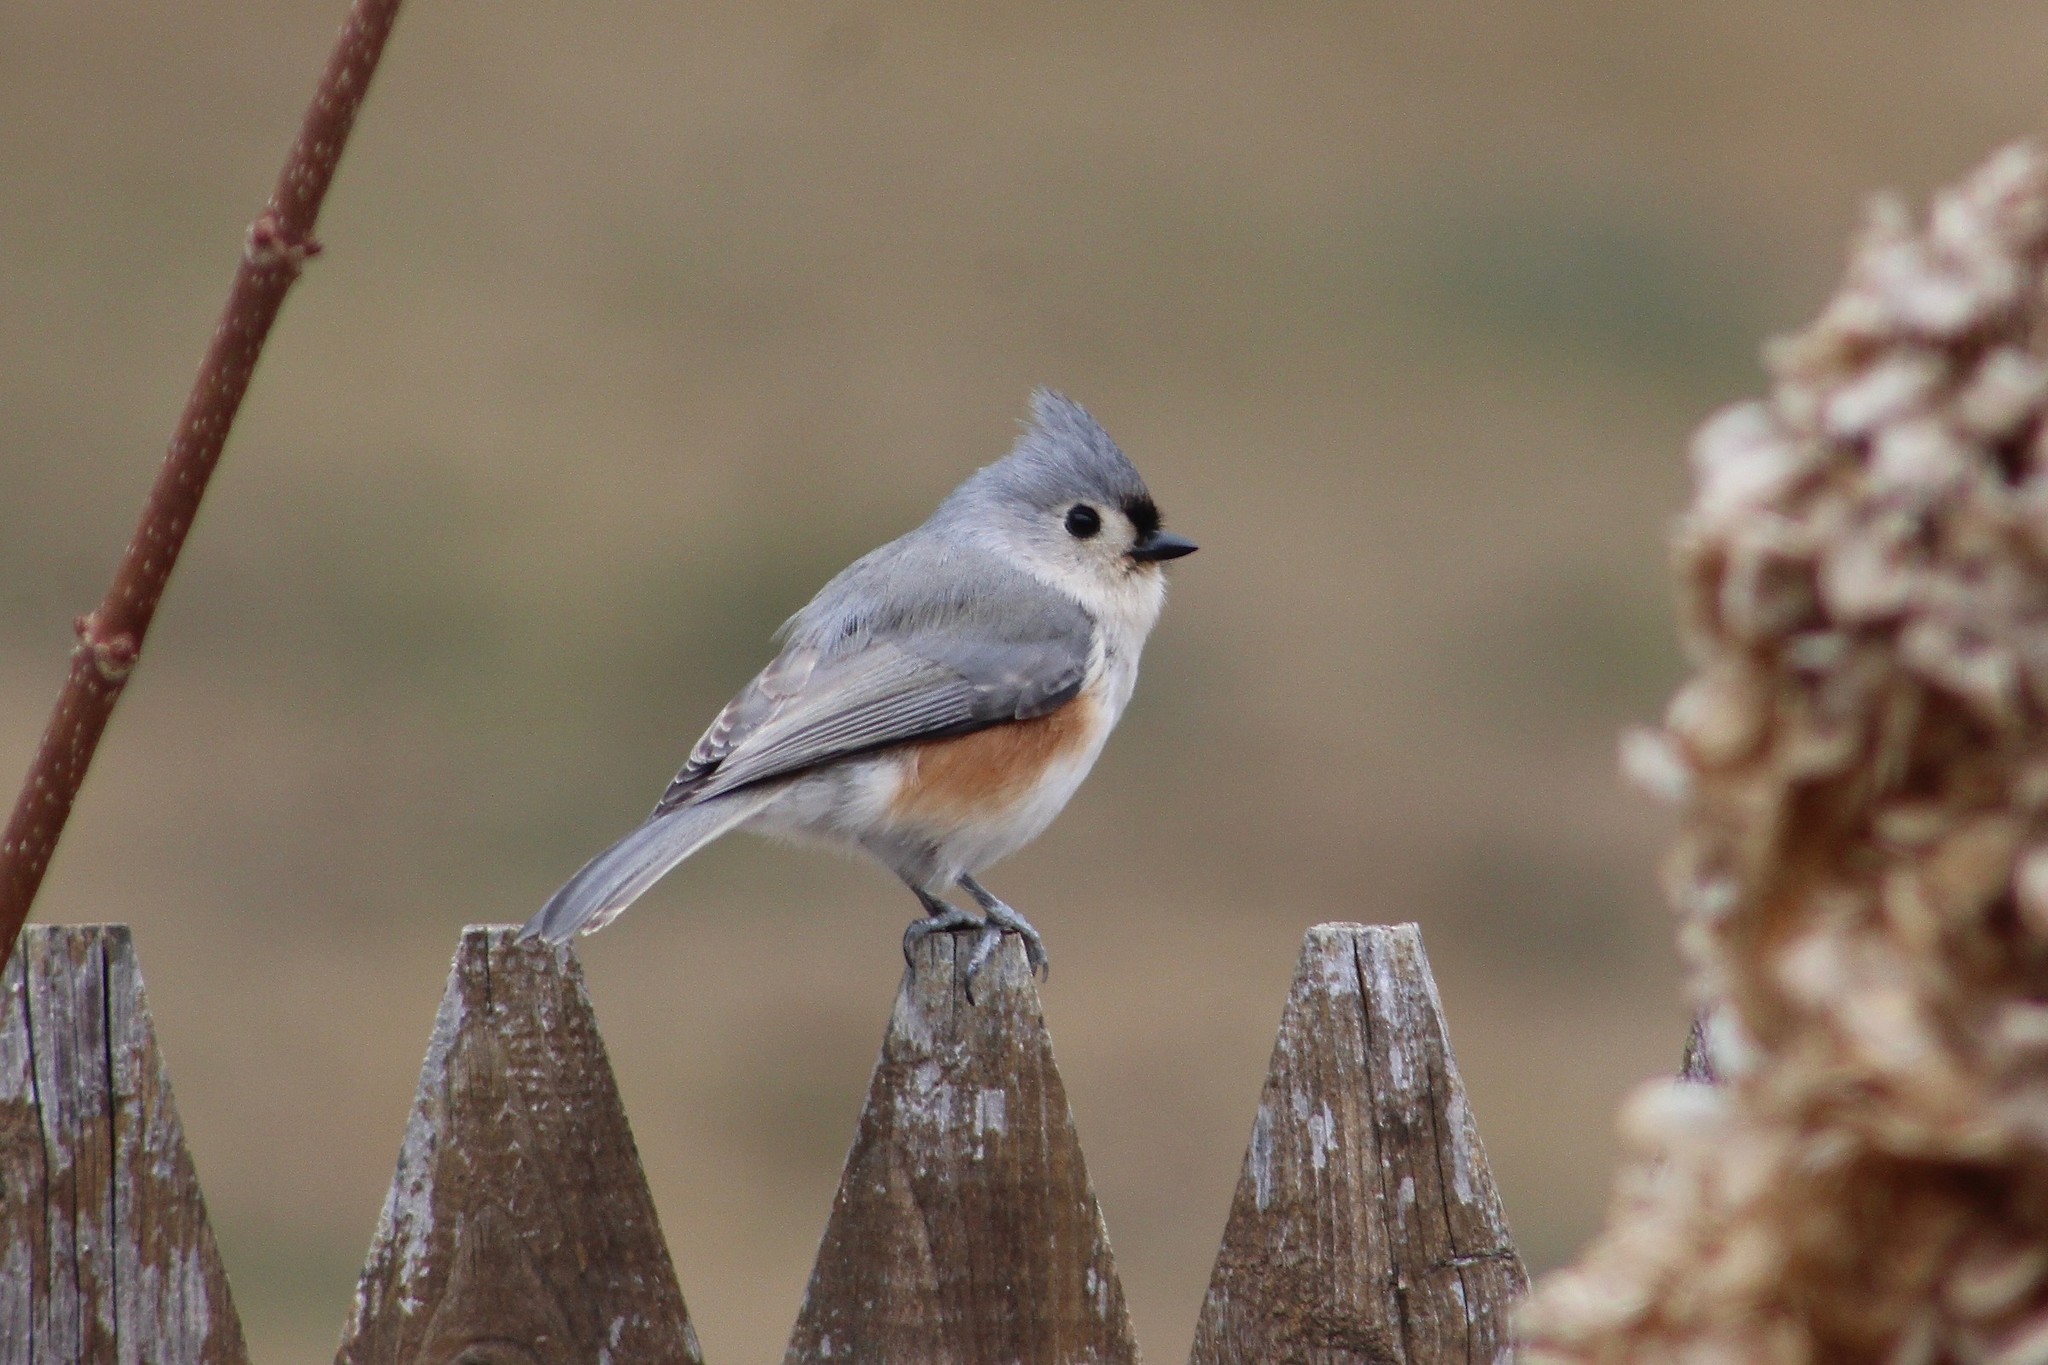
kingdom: Animalia
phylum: Chordata
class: Aves
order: Passeriformes
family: Paridae
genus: Baeolophus
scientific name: Baeolophus bicolor
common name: Tufted titmouse
